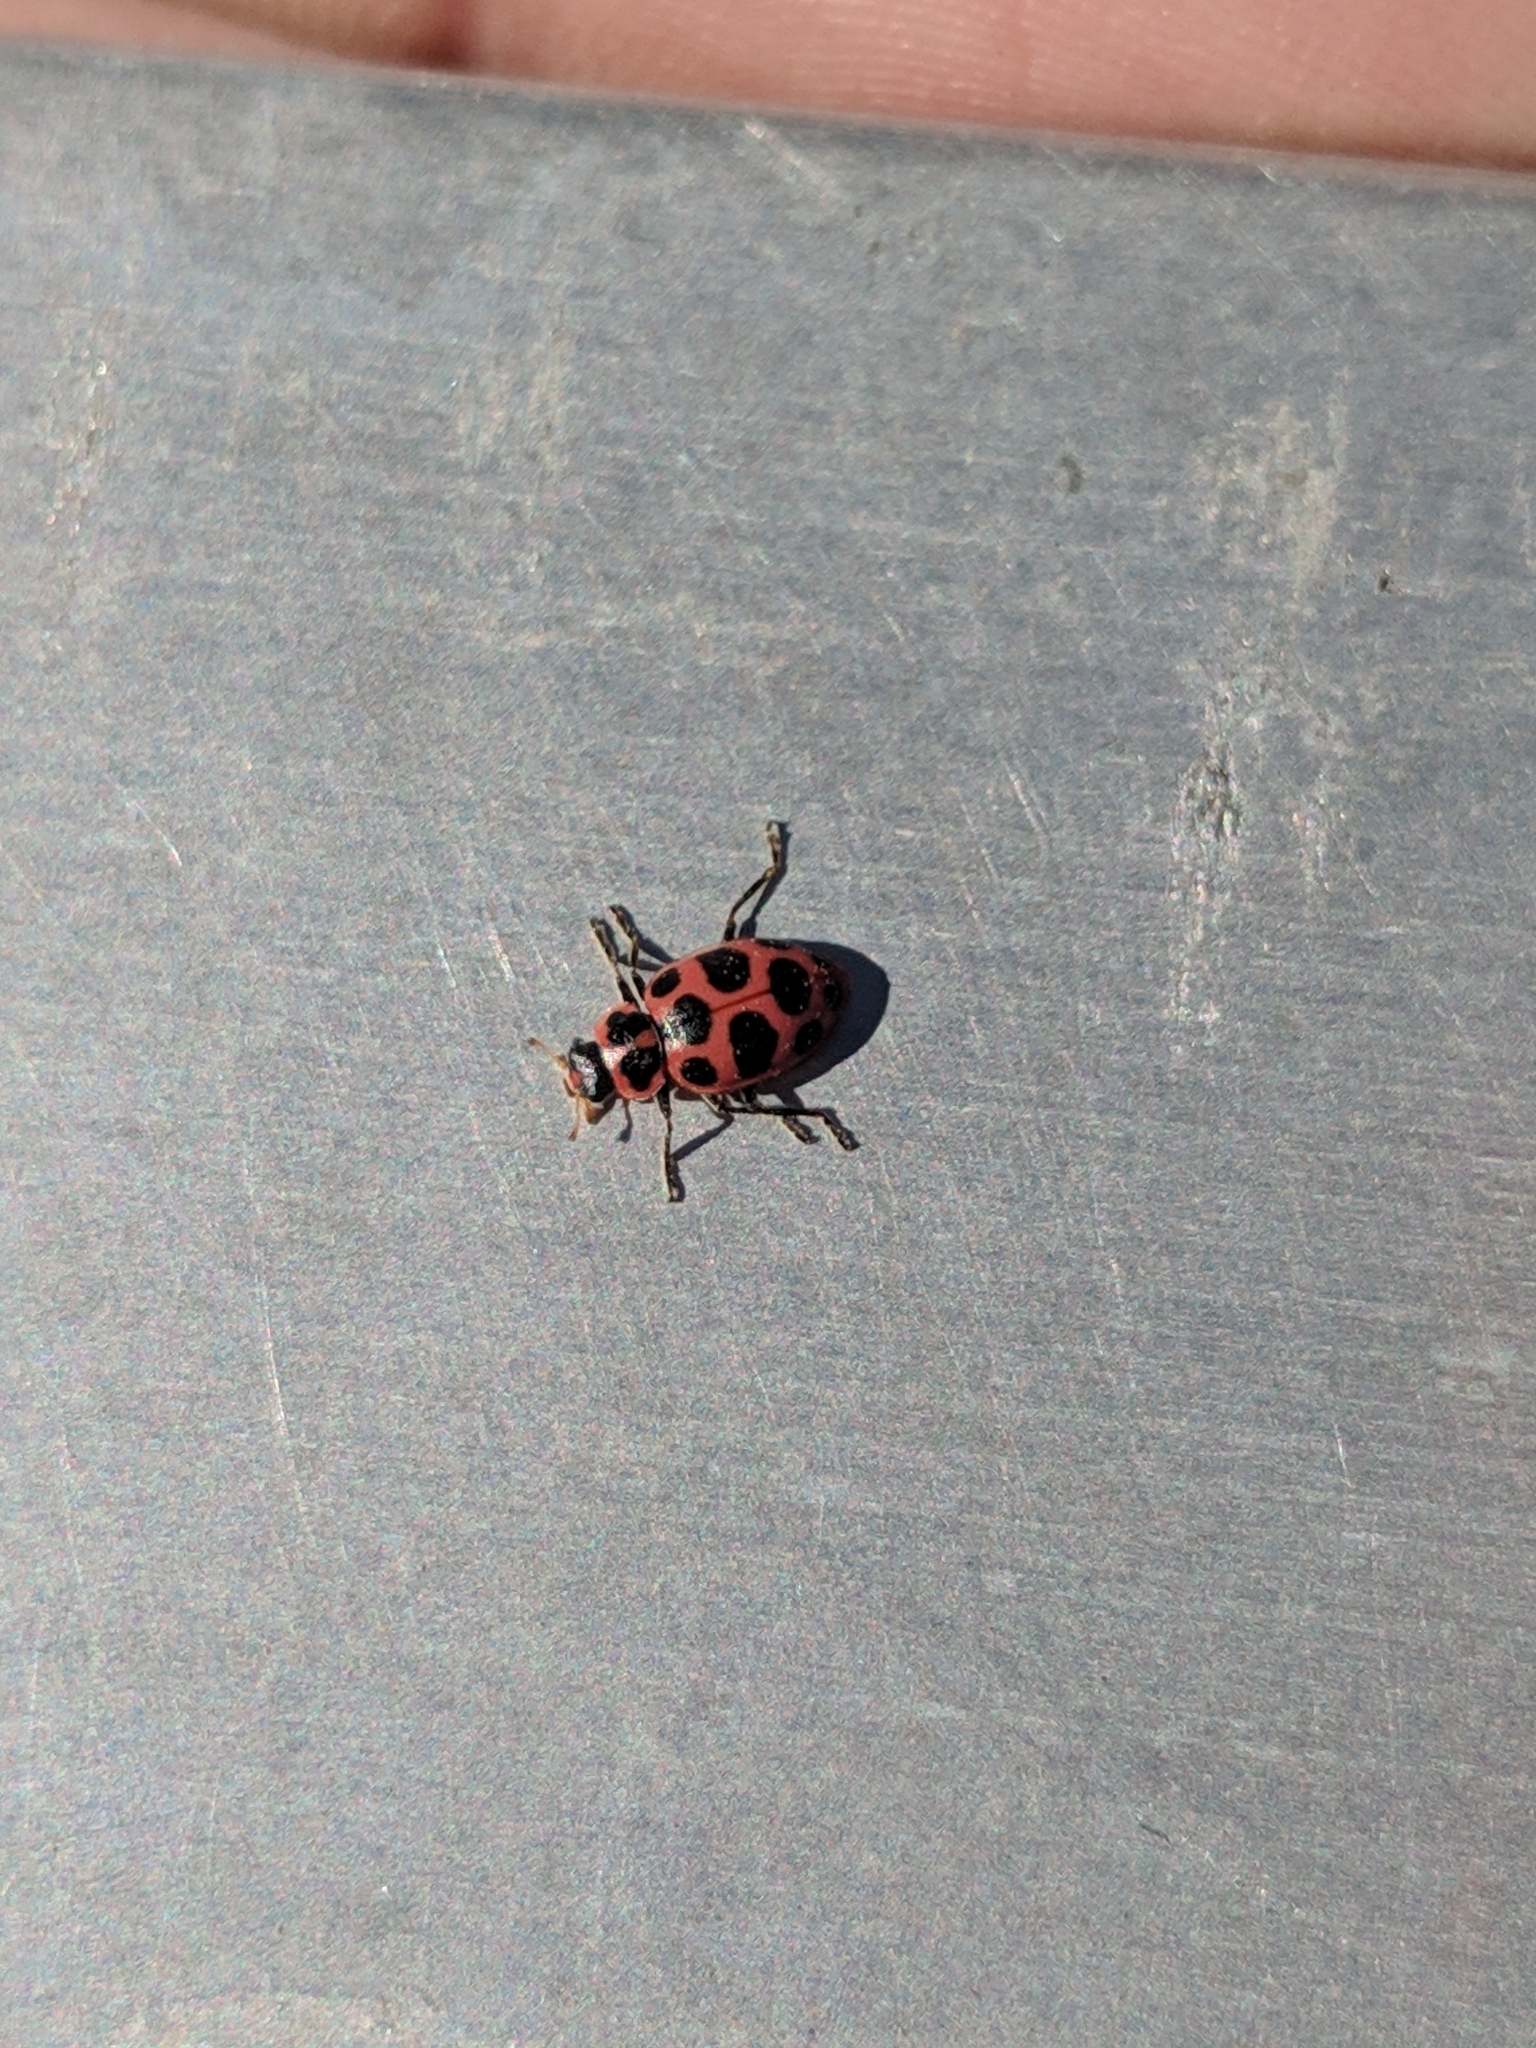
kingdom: Animalia
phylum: Arthropoda
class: Insecta
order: Coleoptera
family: Coccinellidae
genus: Coleomegilla
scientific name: Coleomegilla maculata
